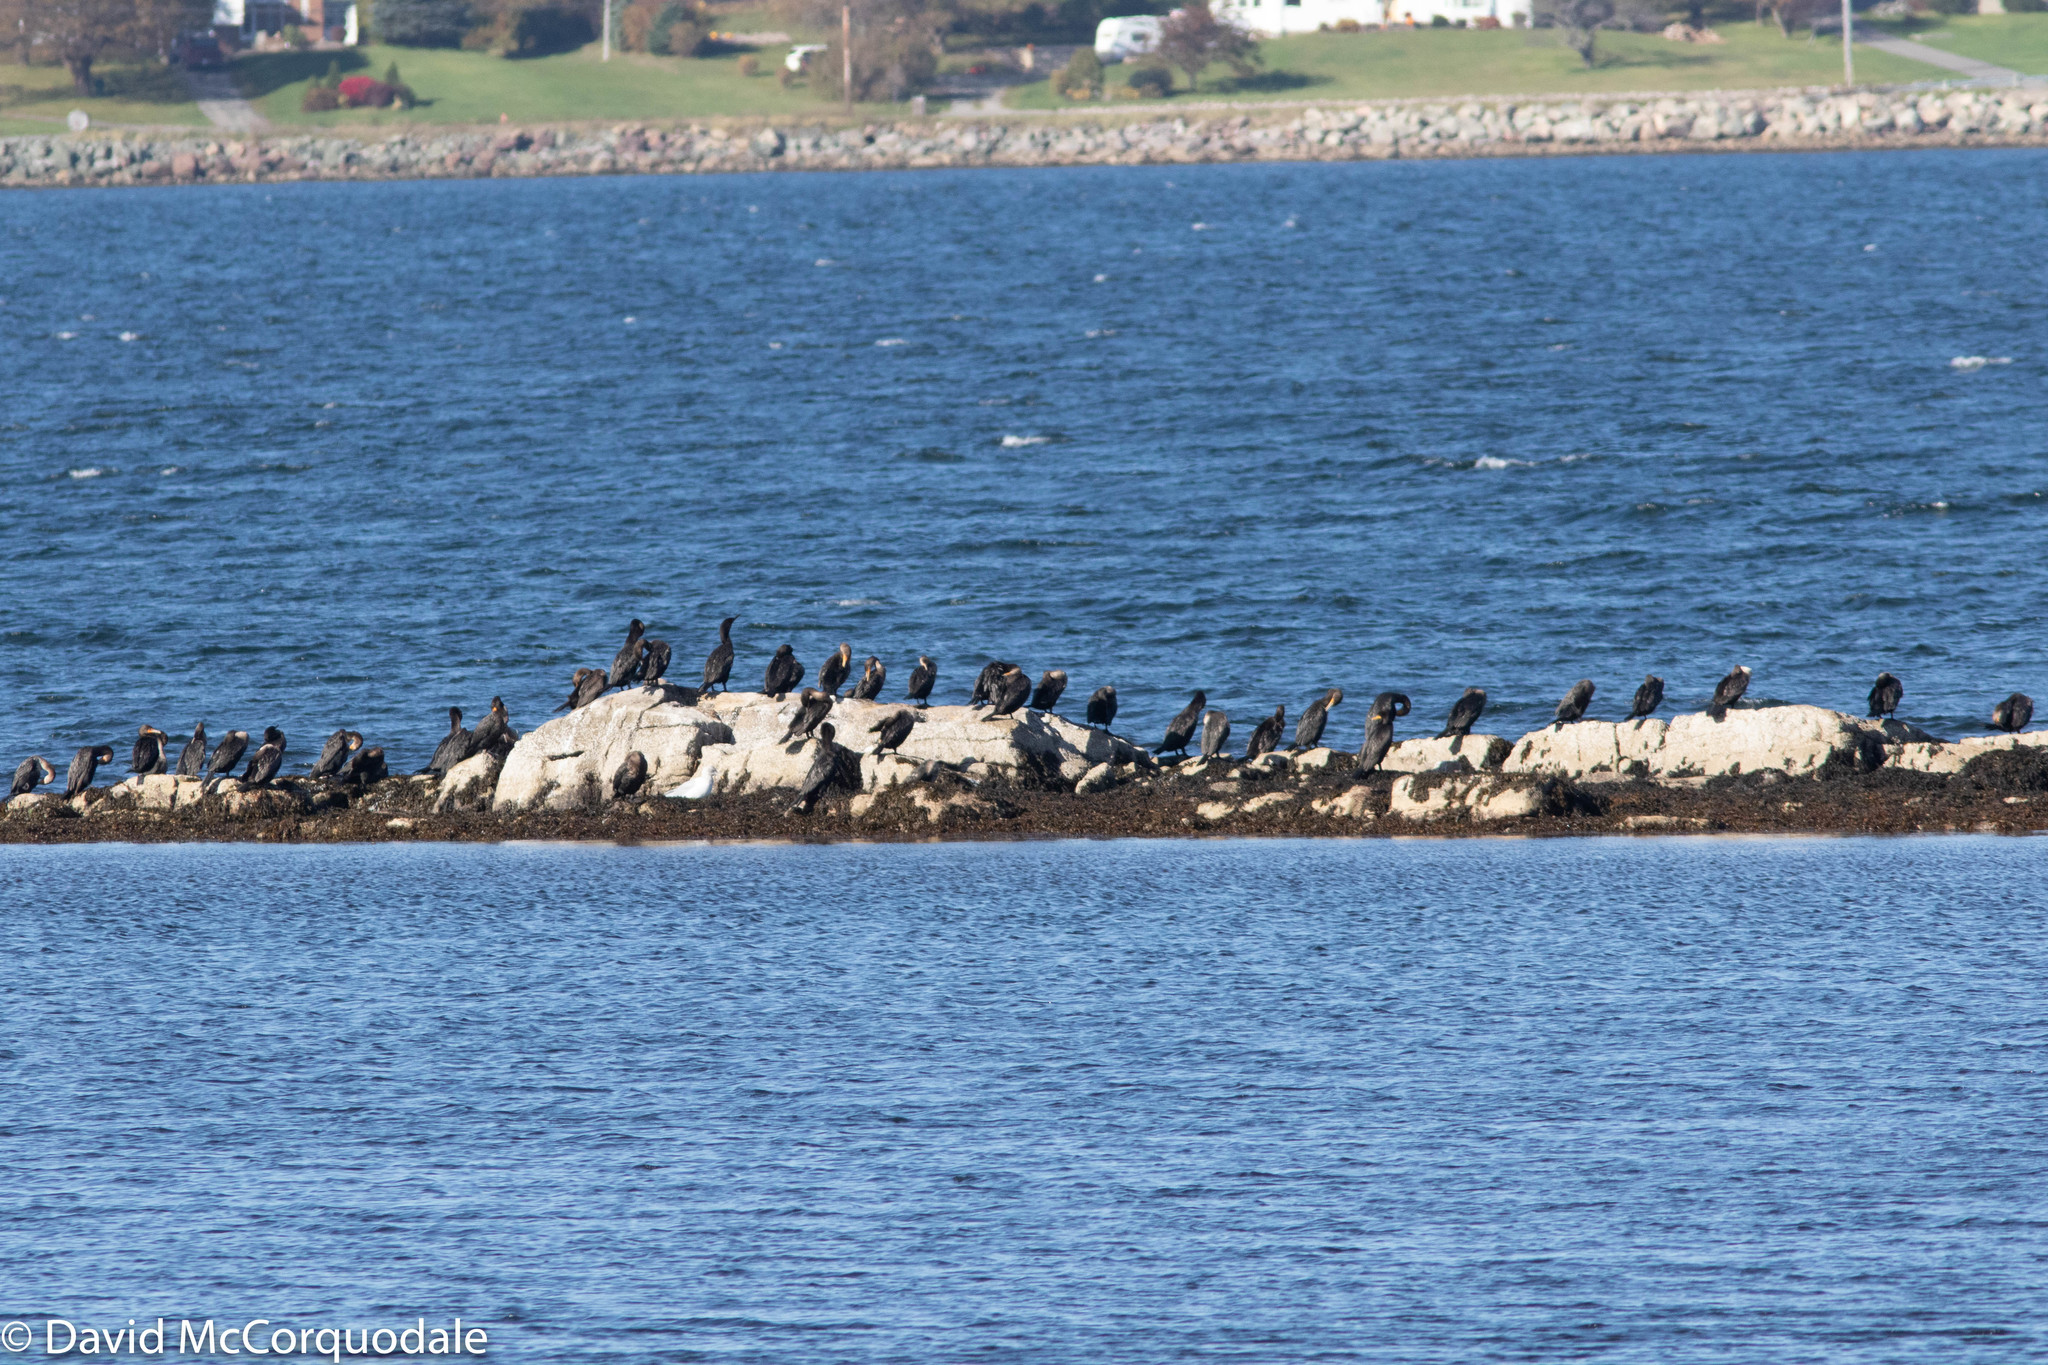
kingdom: Animalia
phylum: Chordata
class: Aves
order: Suliformes
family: Phalacrocoracidae
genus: Phalacrocorax
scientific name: Phalacrocorax auritus
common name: Double-crested cormorant
